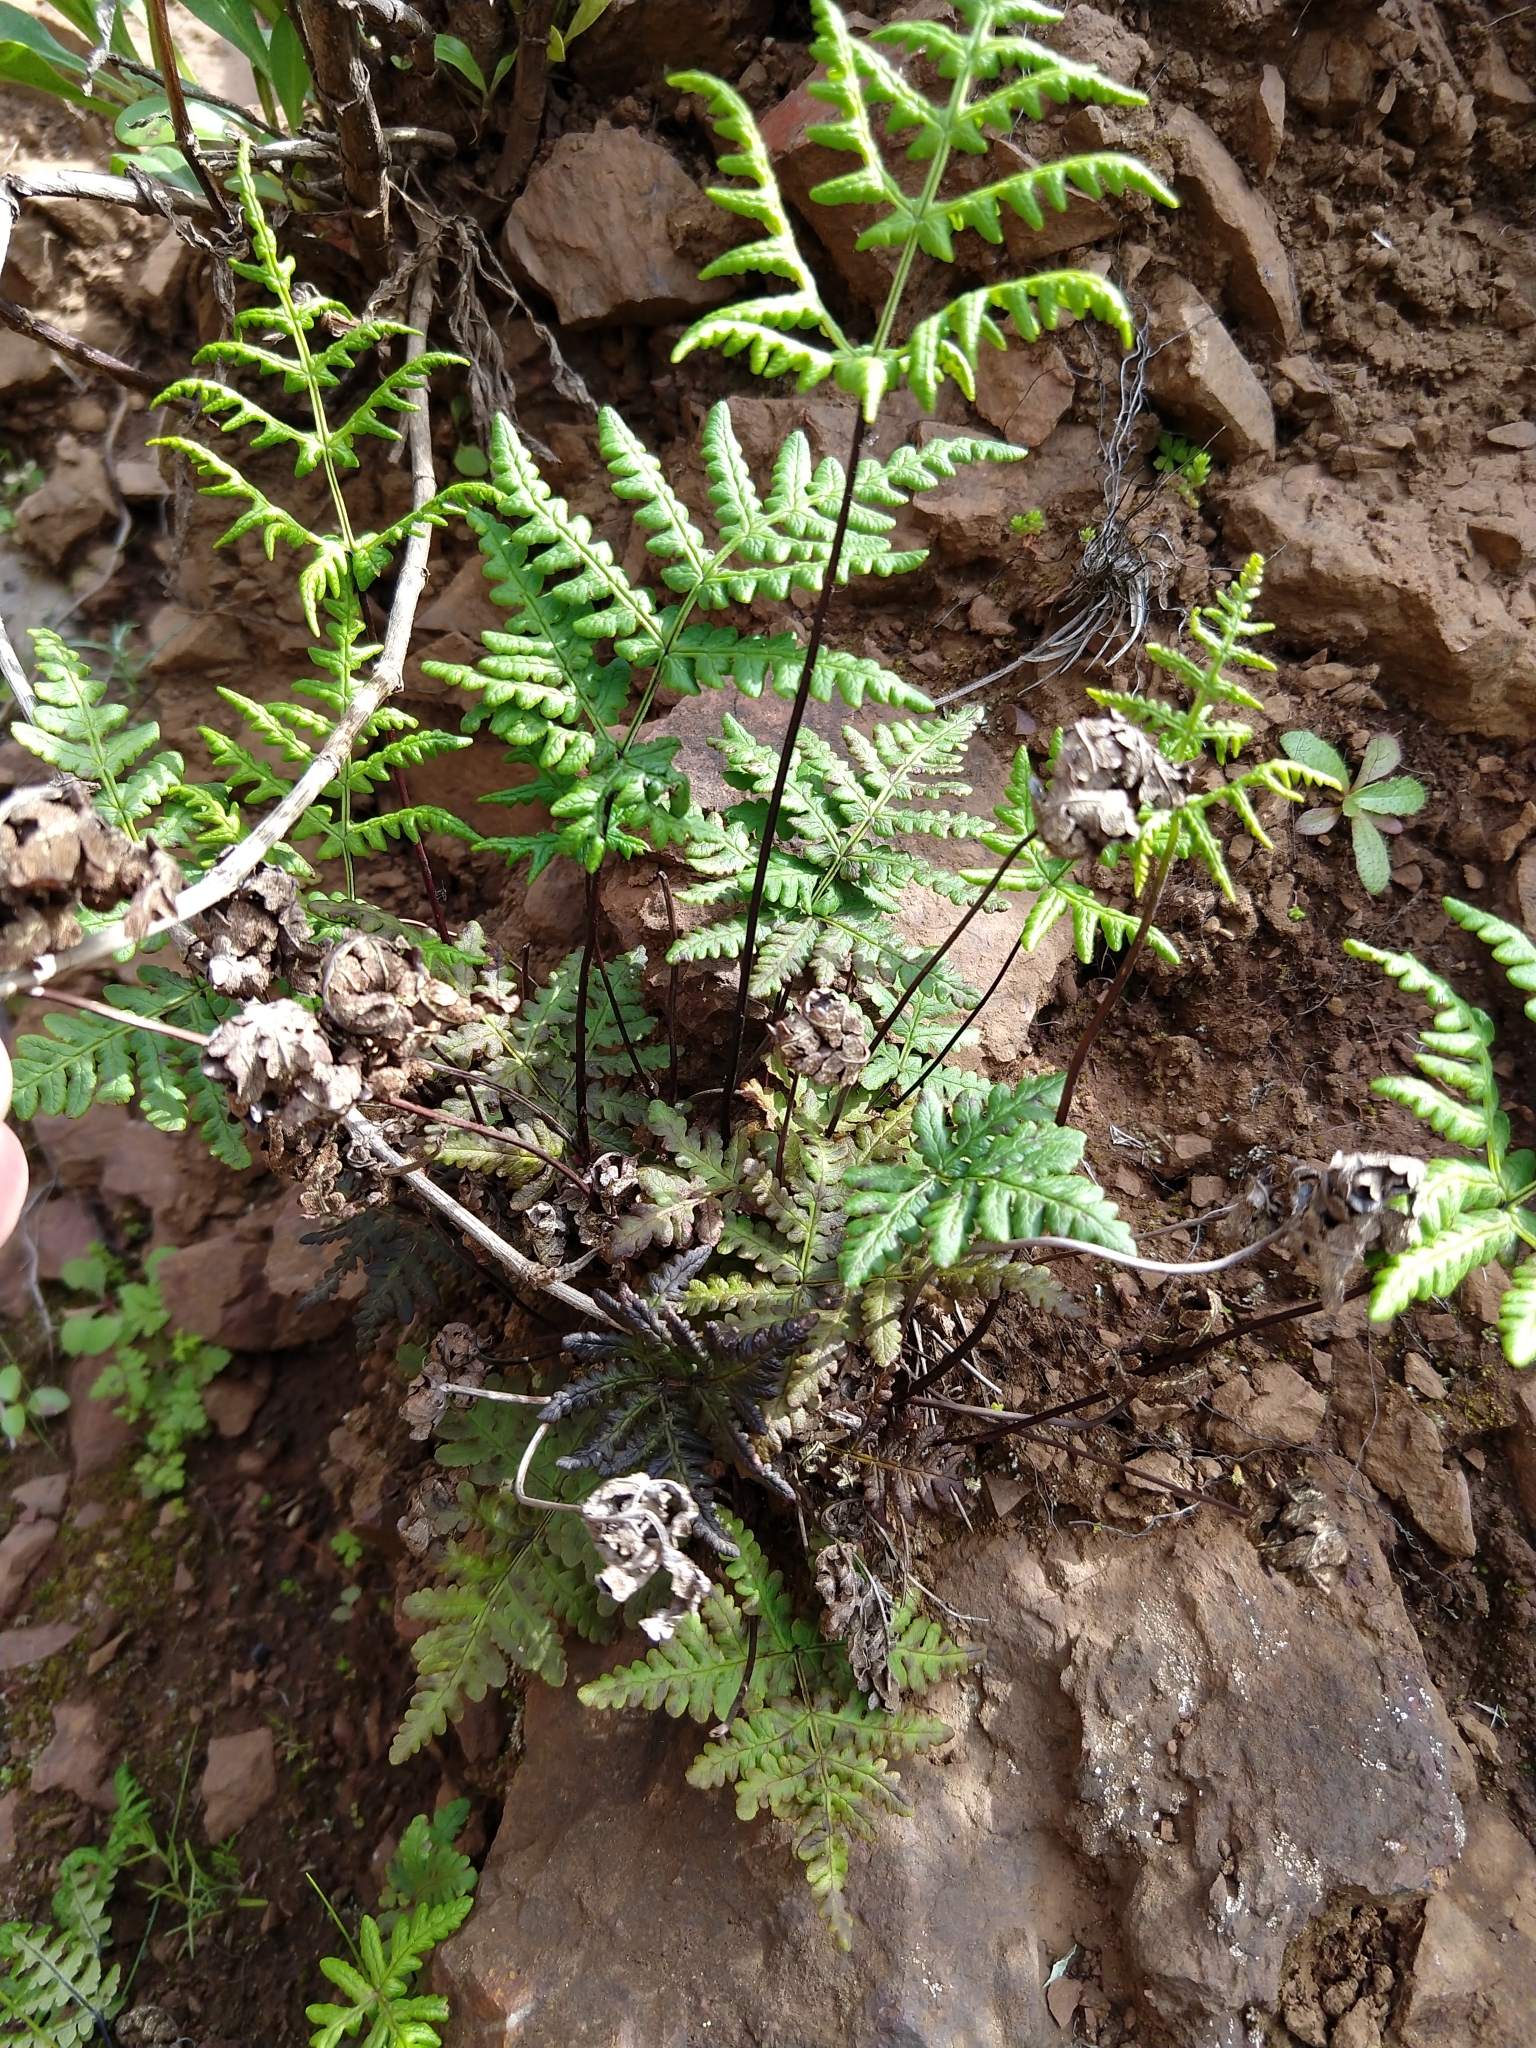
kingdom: Plantae
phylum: Tracheophyta
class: Polypodiopsida
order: Polypodiales
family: Pteridaceae
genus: Pentagramma
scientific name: Pentagramma triangularis
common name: Gold fern
